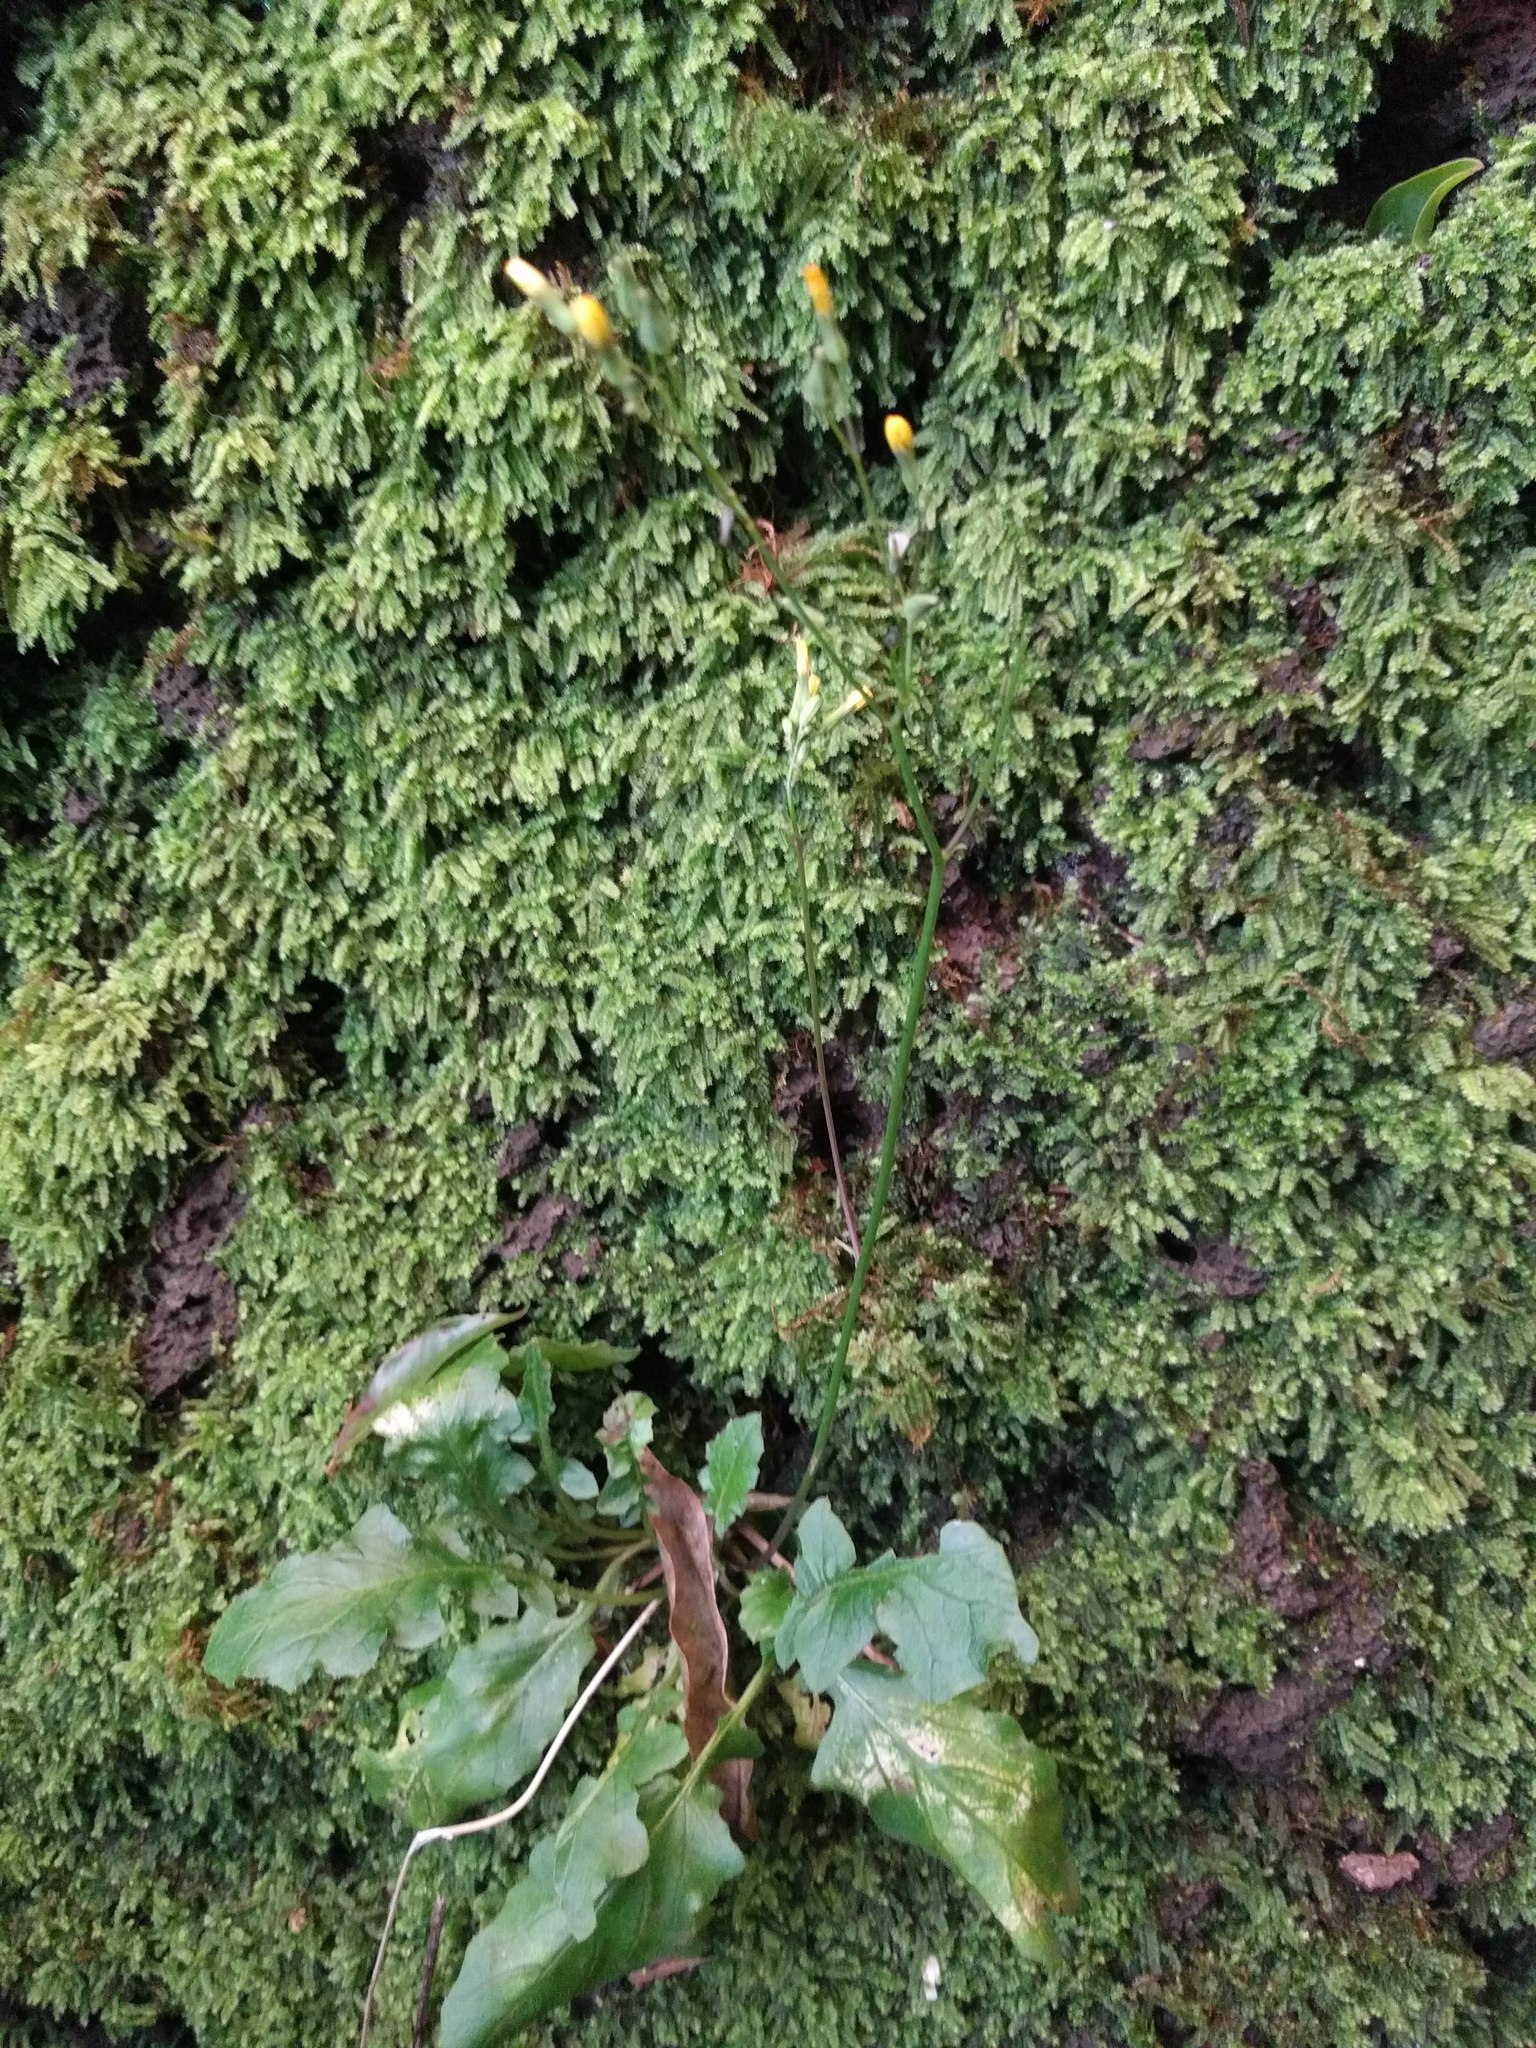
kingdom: Plantae
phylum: Tracheophyta
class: Magnoliopsida
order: Asterales
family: Asteraceae
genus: Youngia
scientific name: Youngia japonica
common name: Oriental false hawksbeard
